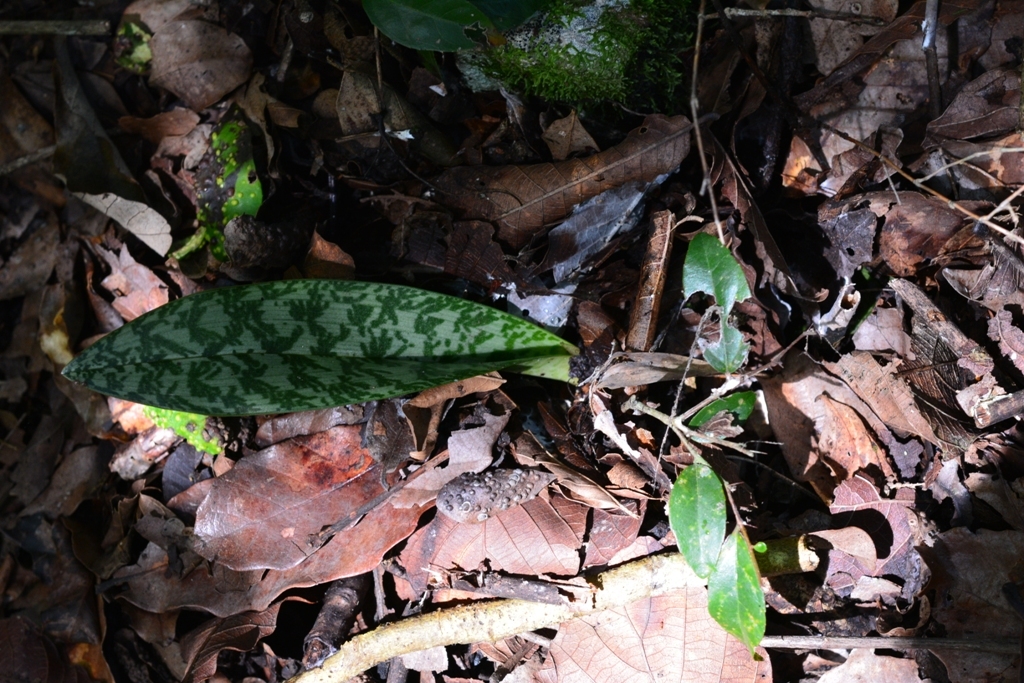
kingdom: Plantae
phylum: Tracheophyta
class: Liliopsida
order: Asparagales
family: Orchidaceae
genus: Eulophia
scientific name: Eulophia maculata
